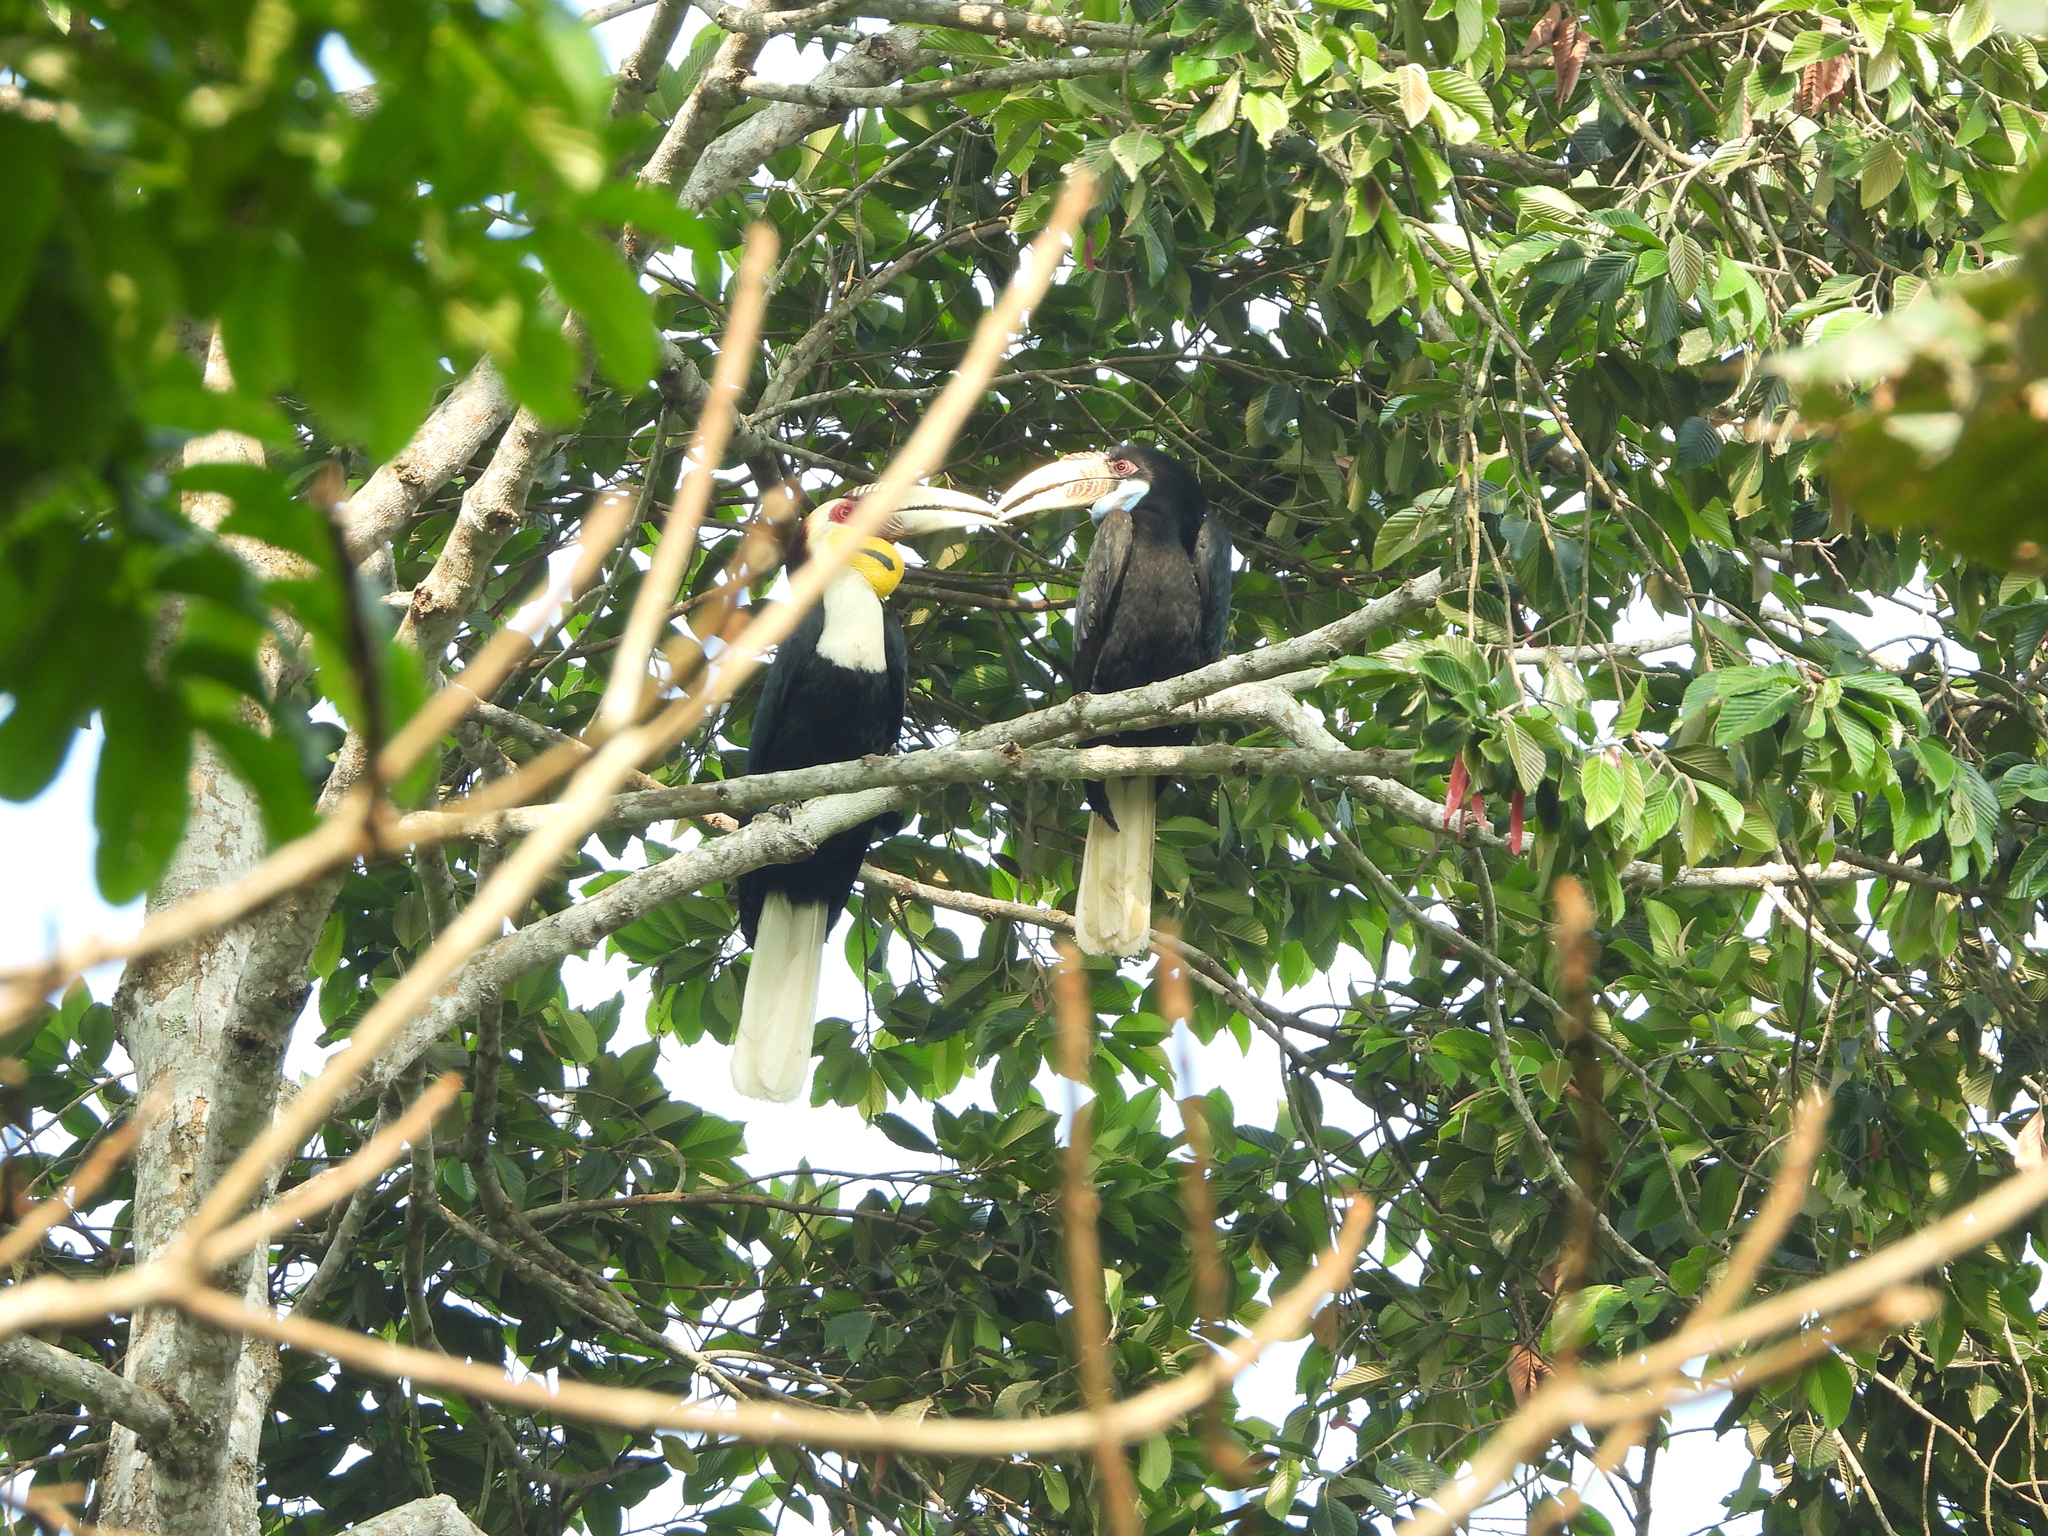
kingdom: Animalia
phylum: Chordata
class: Aves
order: Bucerotiformes
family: Bucerotidae
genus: Rhyticeros
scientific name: Rhyticeros undulatus
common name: Wreathed hornbill
